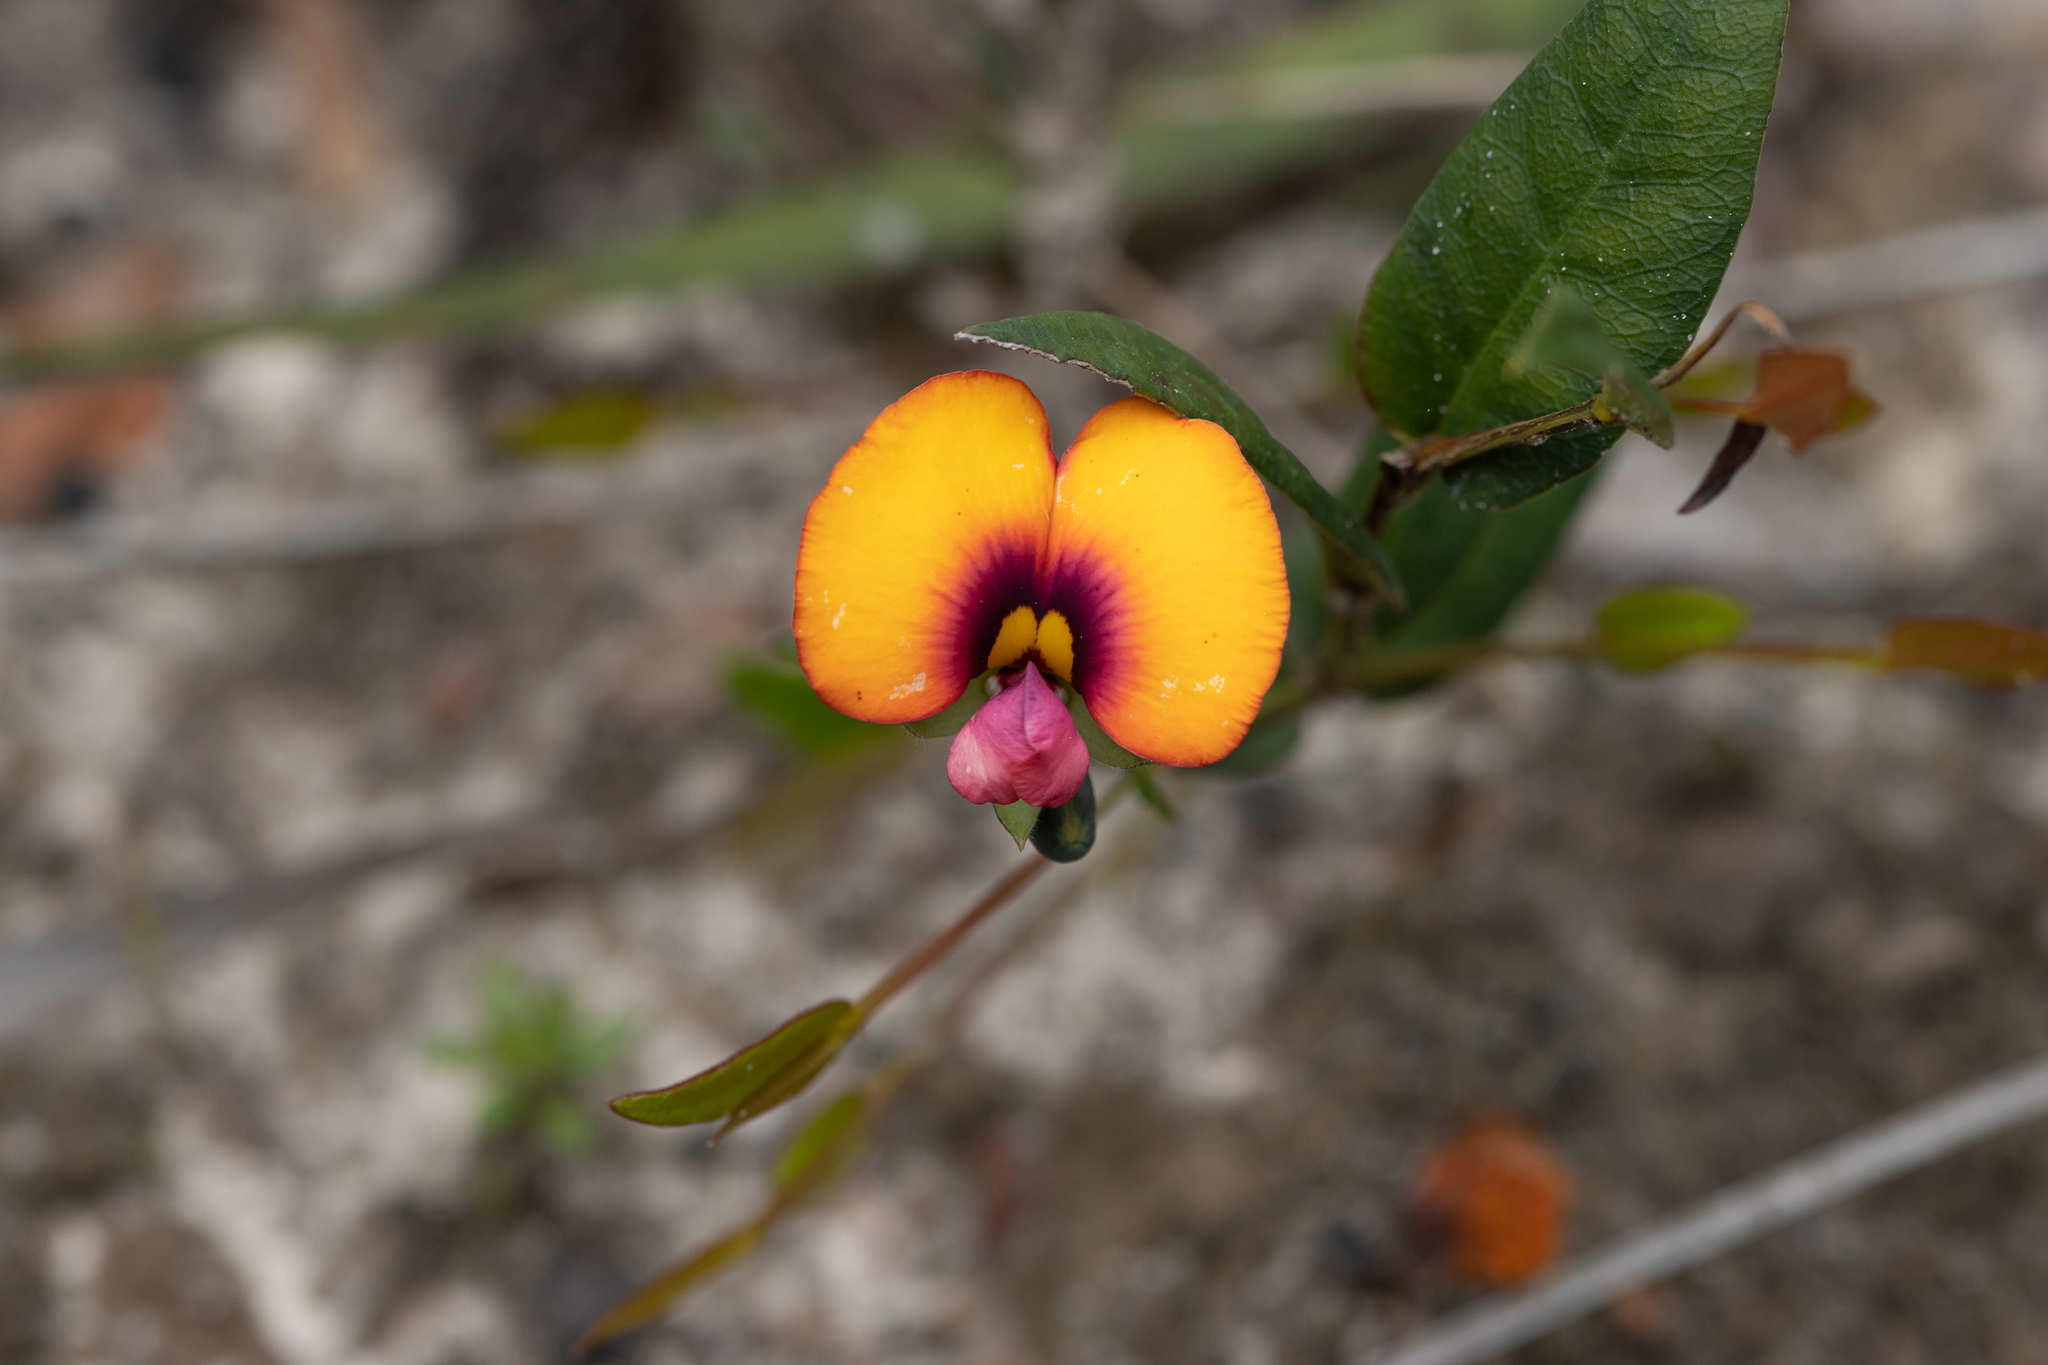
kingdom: Plantae
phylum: Tracheophyta
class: Magnoliopsida
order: Fabales
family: Fabaceae
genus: Gompholobium
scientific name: Gompholobium ovatum
